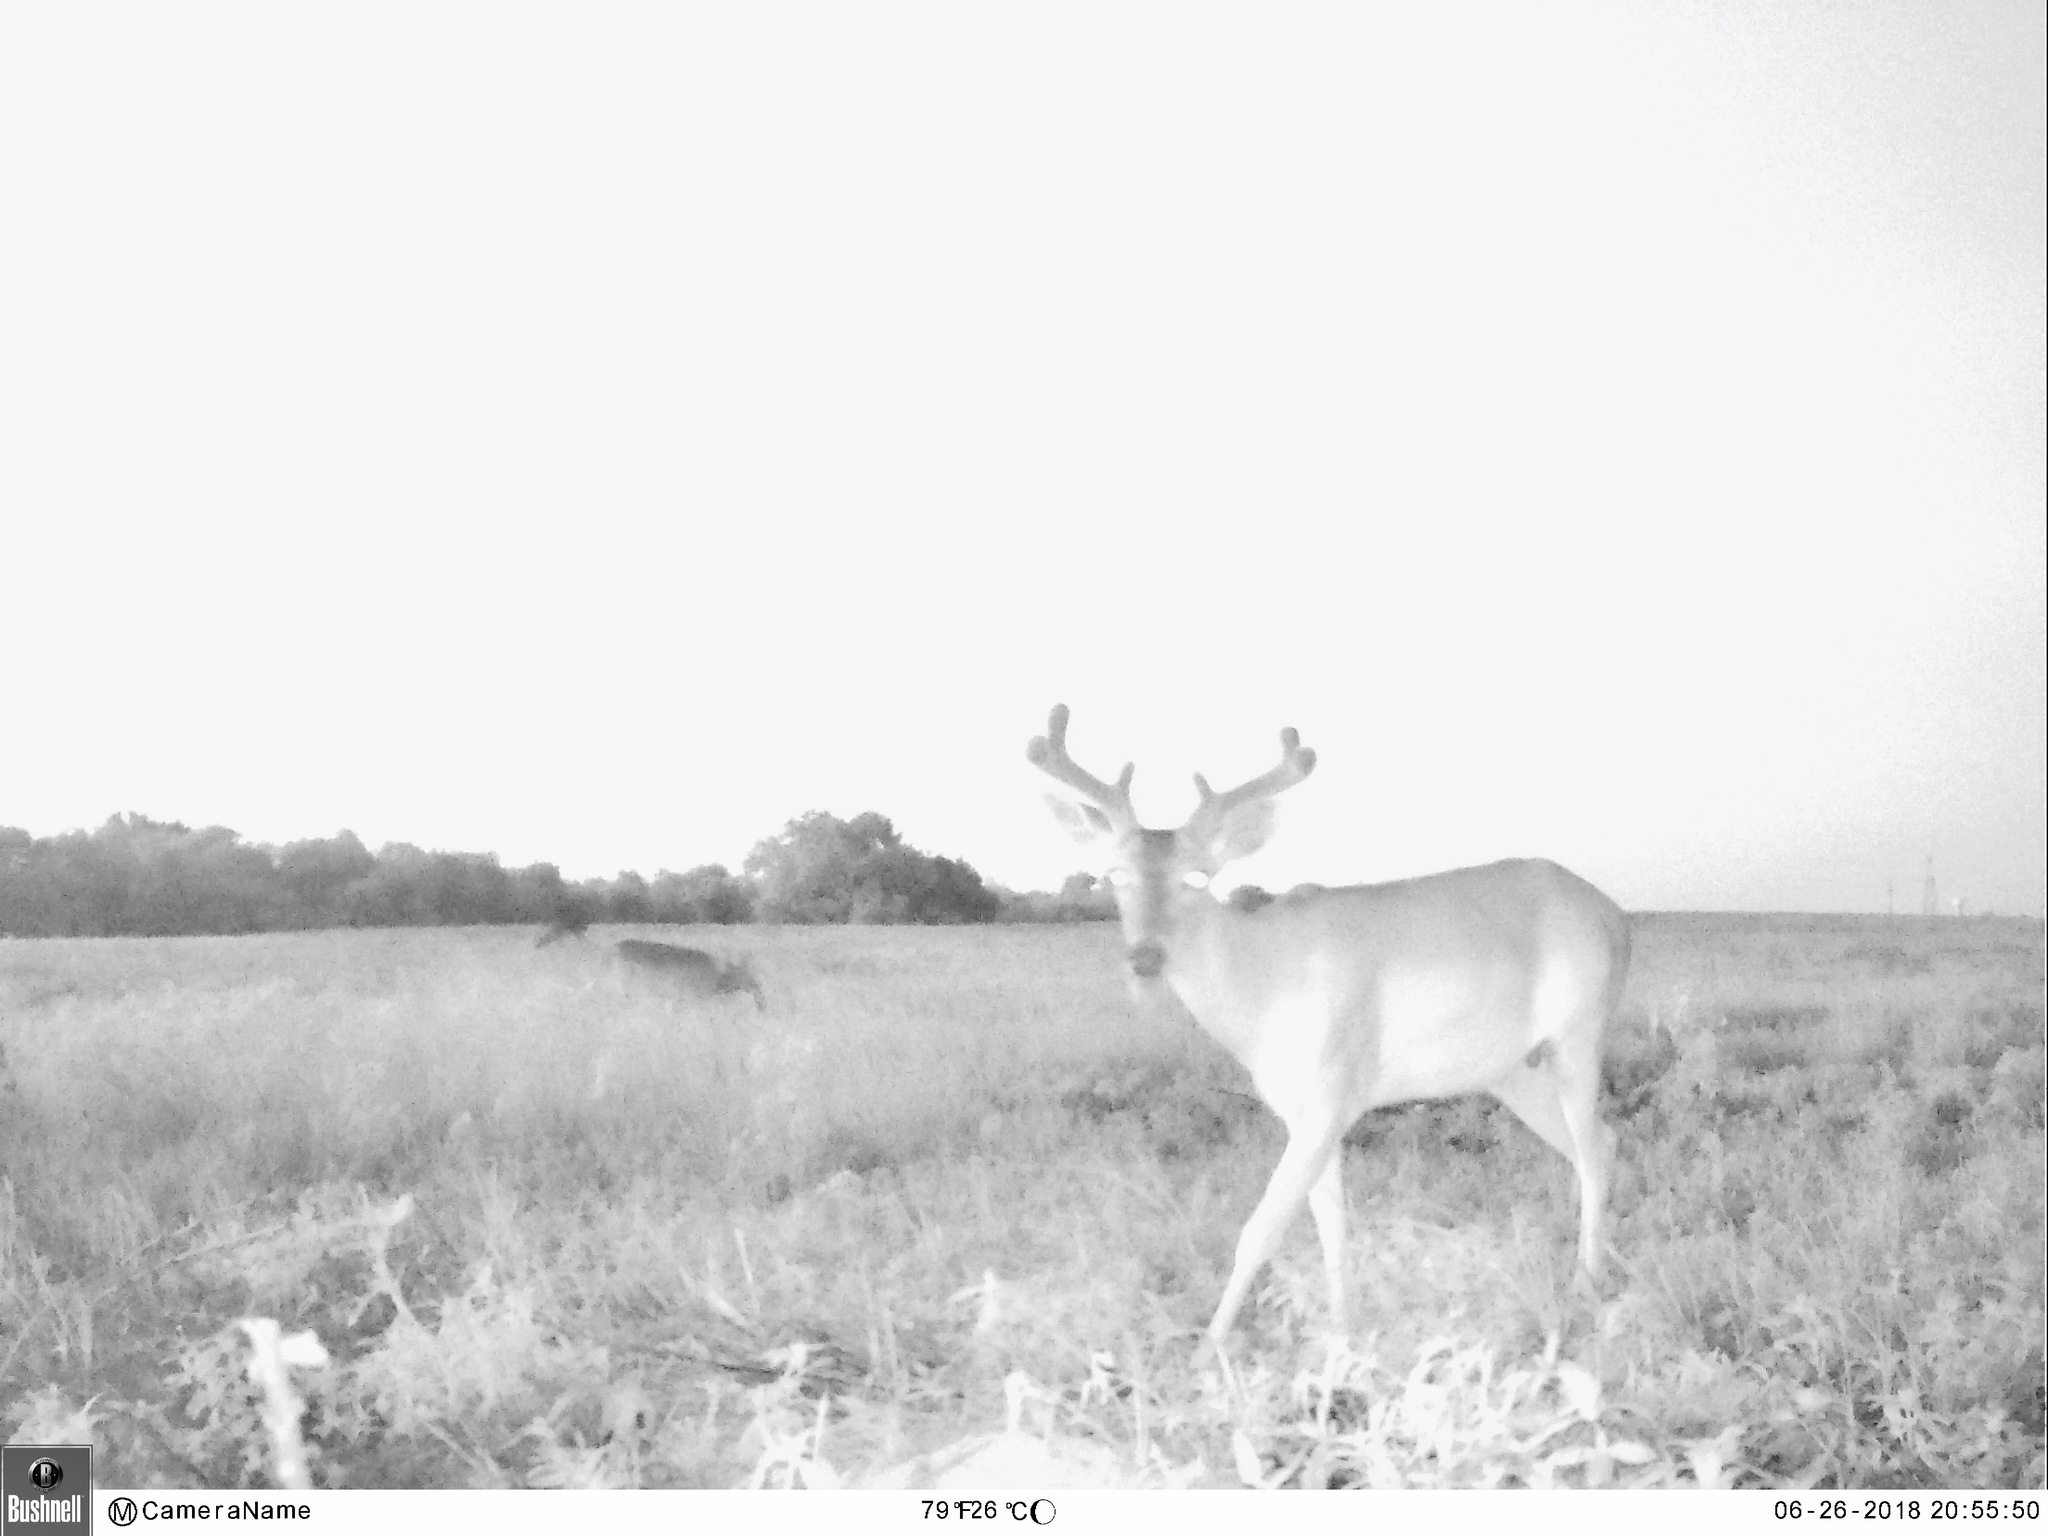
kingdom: Animalia
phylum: Chordata
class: Mammalia
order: Artiodactyla
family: Cervidae
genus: Odocoileus
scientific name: Odocoileus virginianus
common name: White-tailed deer
